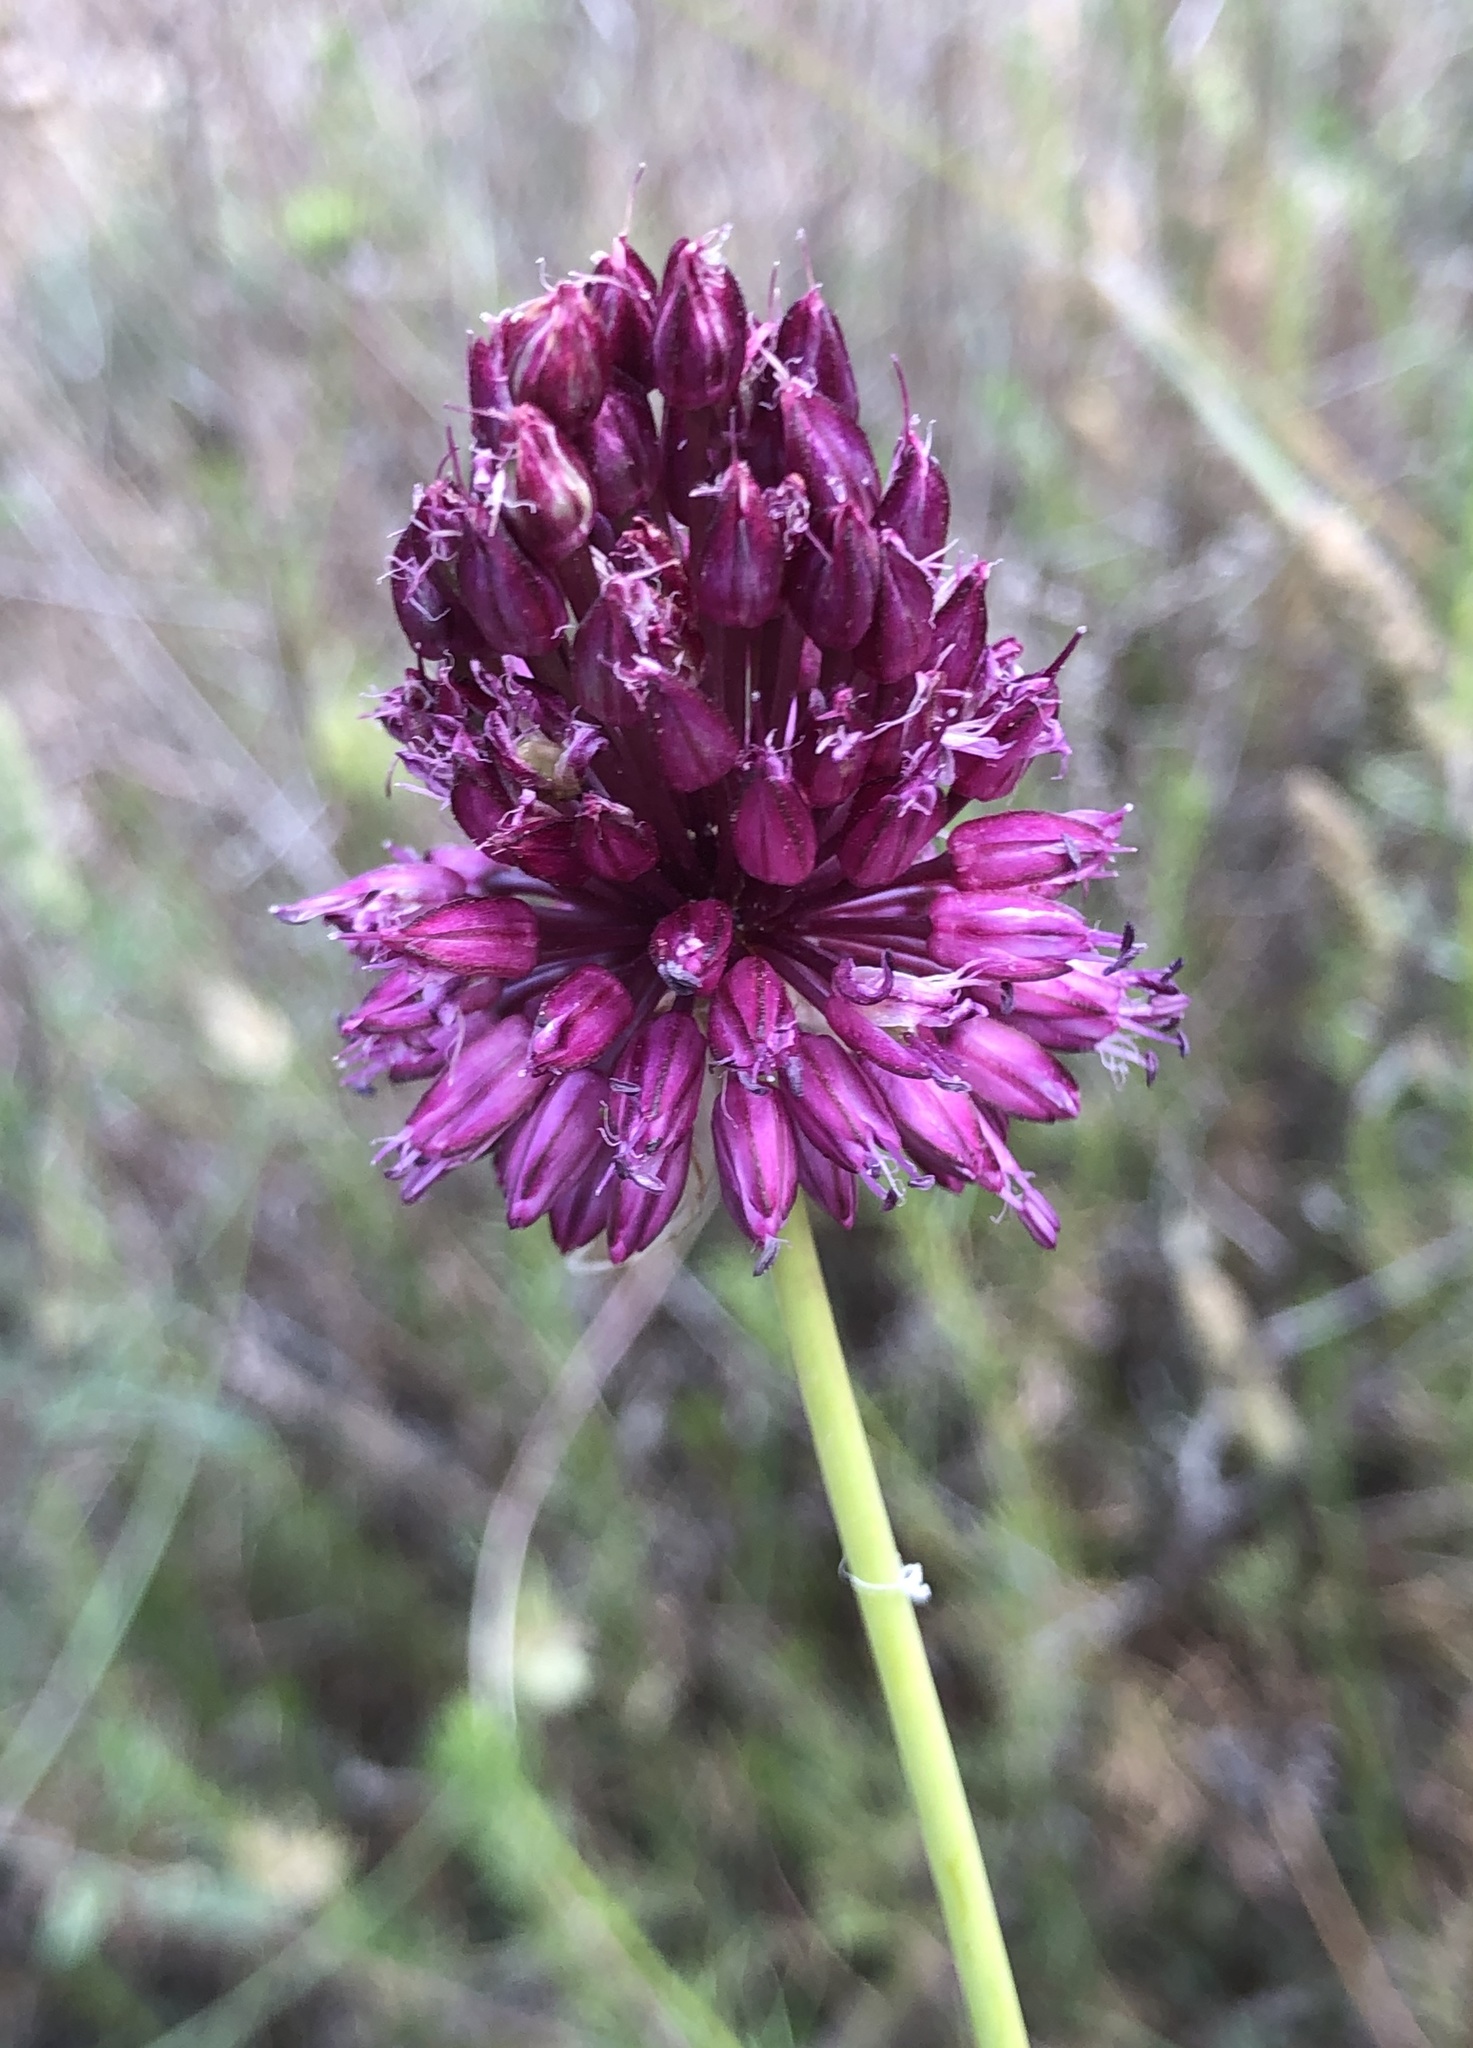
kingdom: Plantae
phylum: Tracheophyta
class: Liliopsida
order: Asparagales
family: Amaryllidaceae
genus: Allium
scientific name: Allium sphaerocephalon
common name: Round-headed leek
